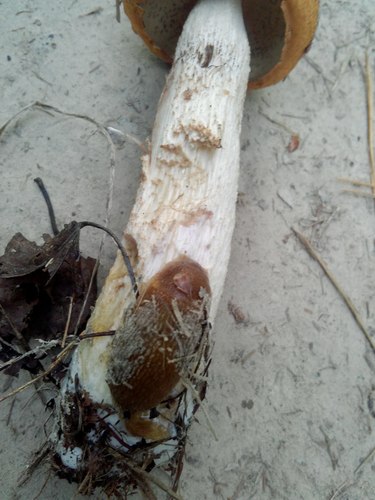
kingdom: Fungi
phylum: Basidiomycota
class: Agaricomycetes
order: Boletales
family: Boletaceae
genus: Leccinum
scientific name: Leccinum albostipitatum
